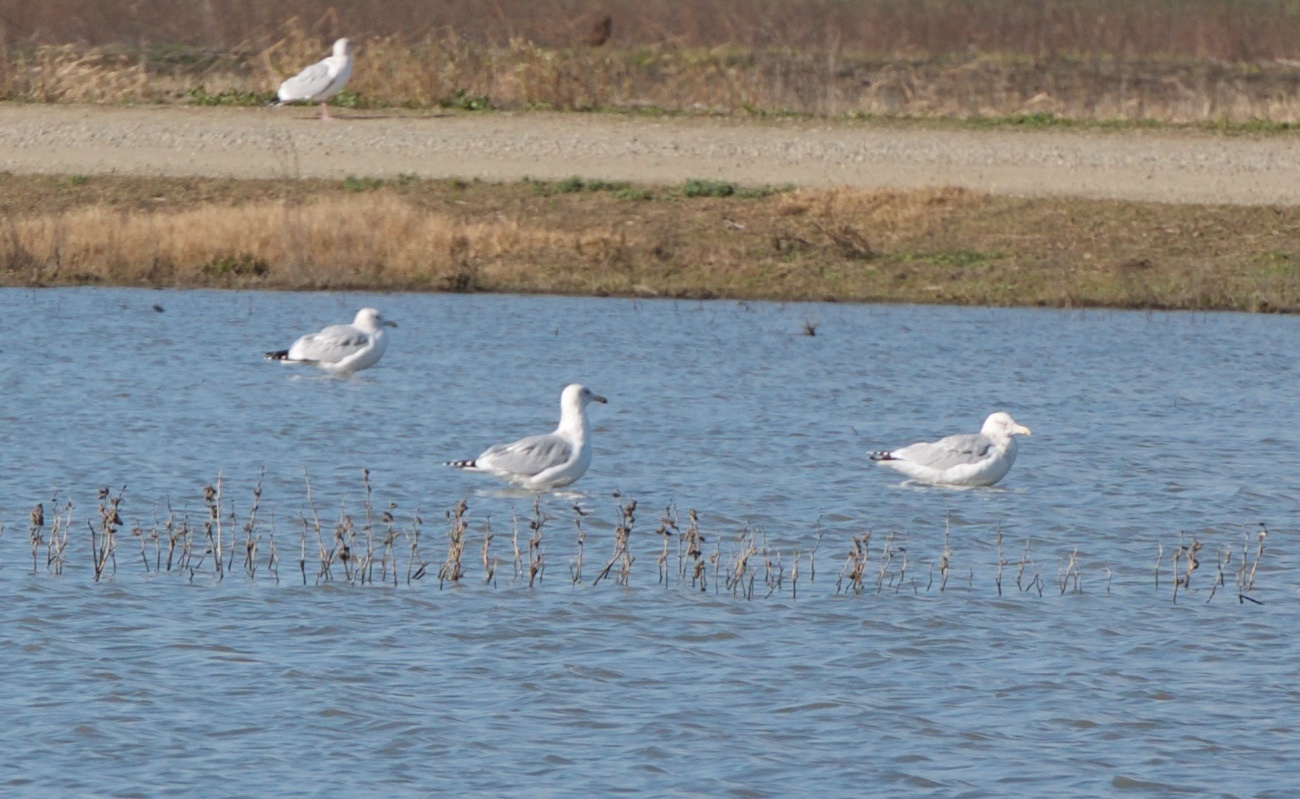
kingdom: Animalia
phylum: Chordata
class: Aves
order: Charadriiformes
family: Laridae
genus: Larus
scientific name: Larus argentatus
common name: Herring gull
